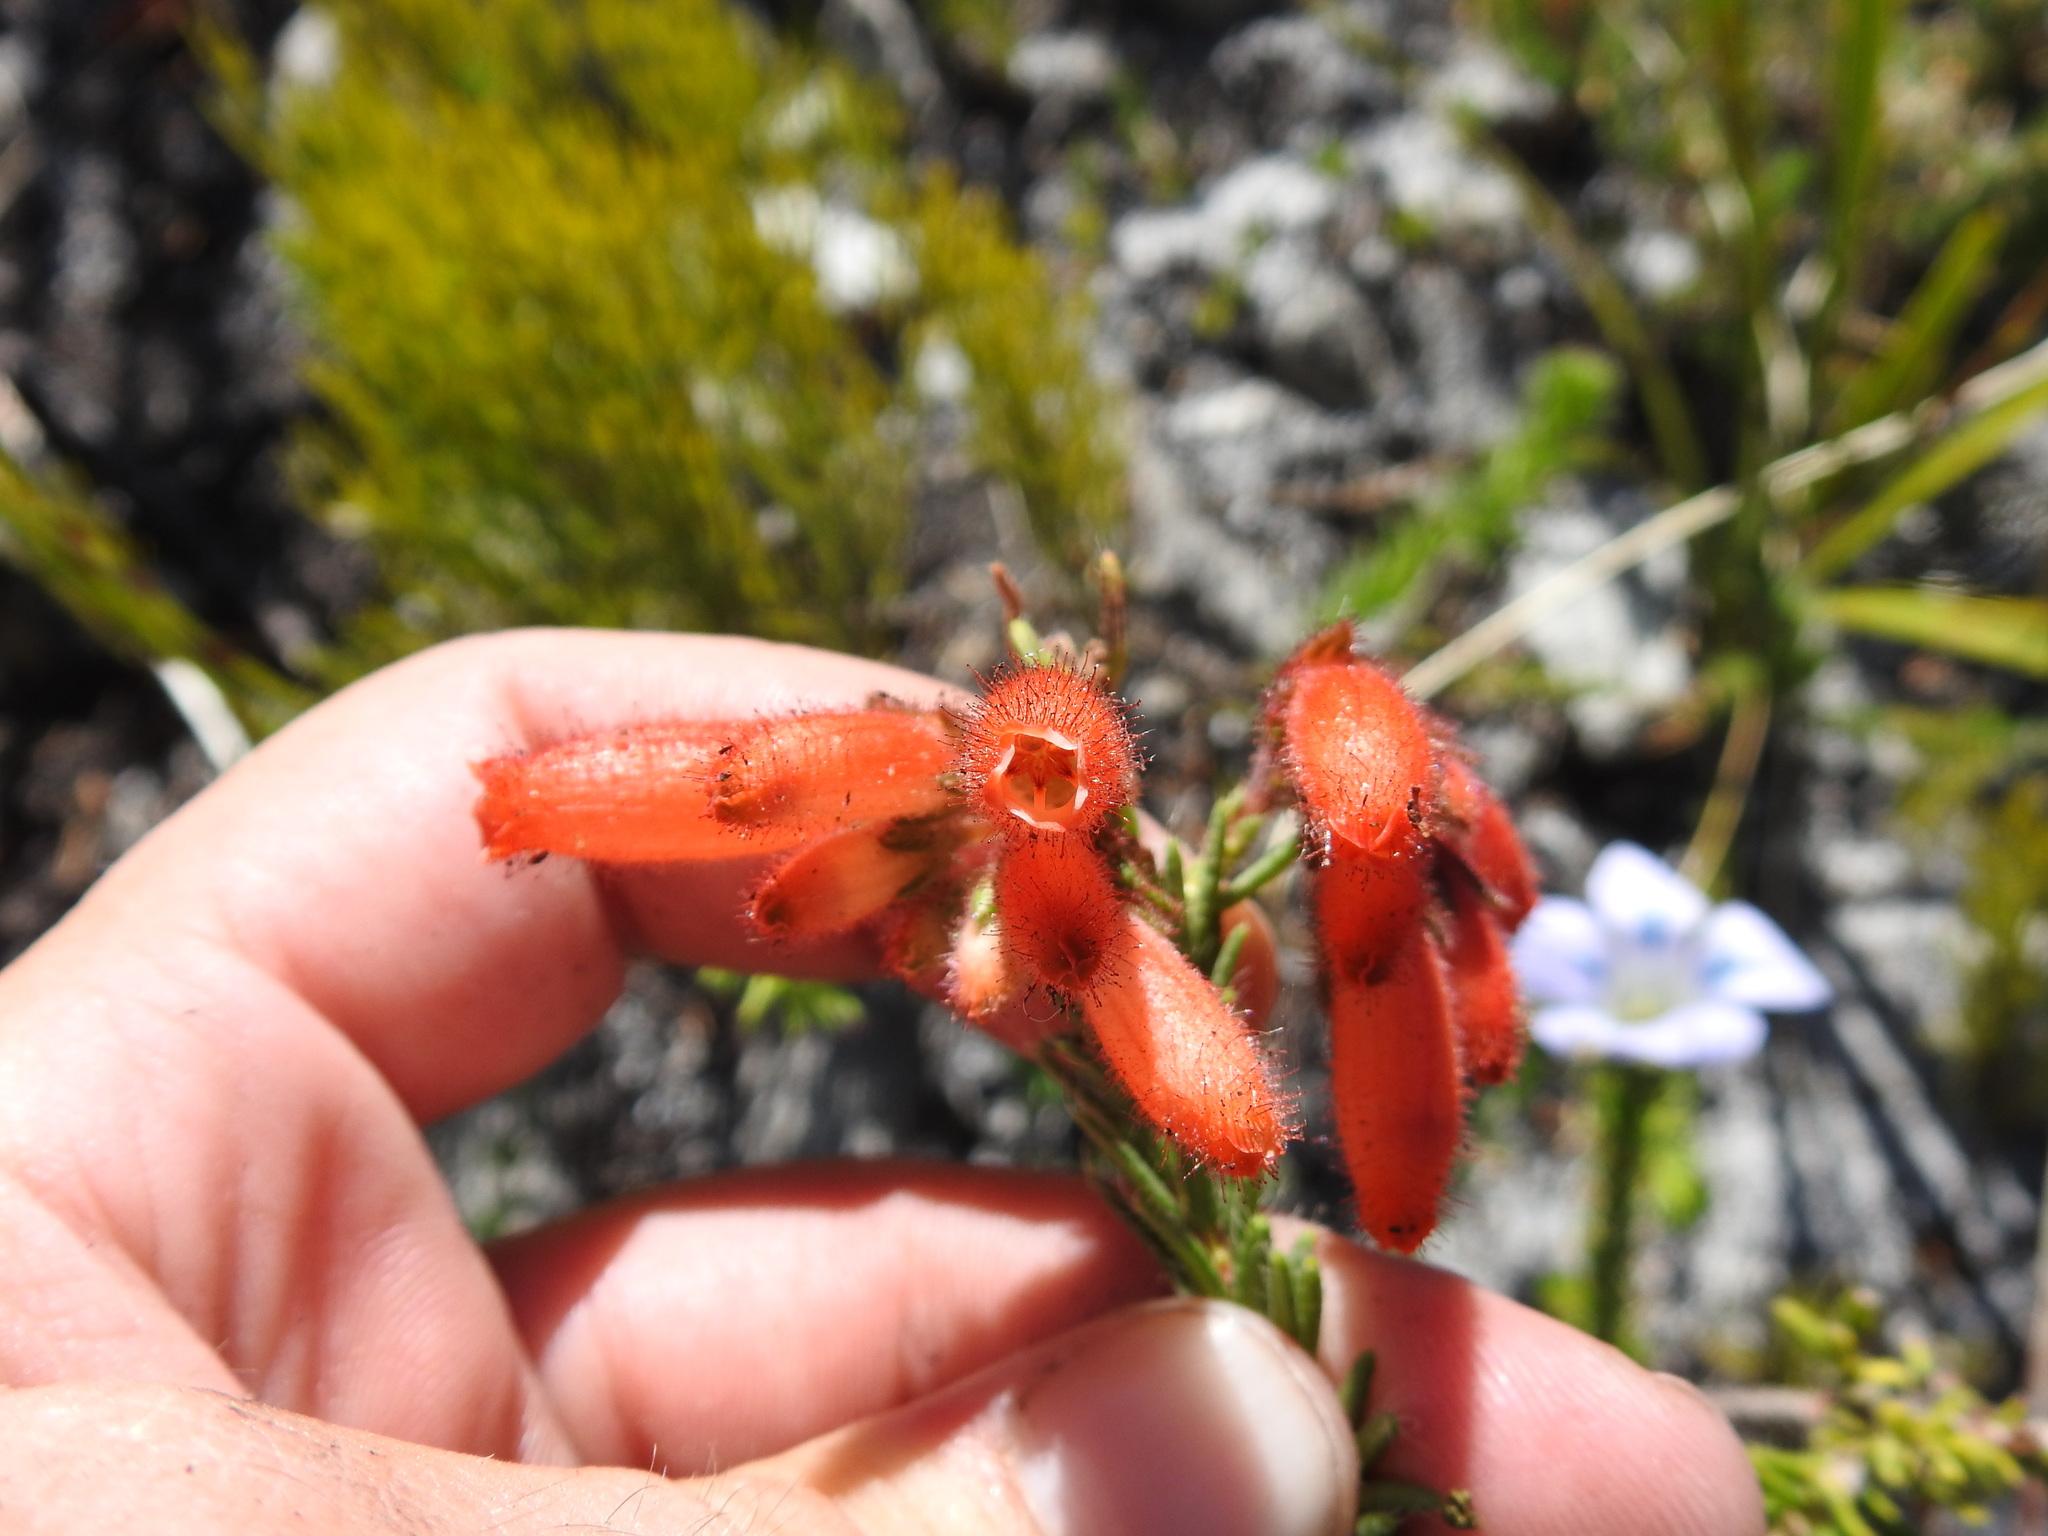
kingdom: Plantae
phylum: Tracheophyta
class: Magnoliopsida
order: Ericales
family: Ericaceae
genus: Erica
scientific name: Erica cerinthoides
